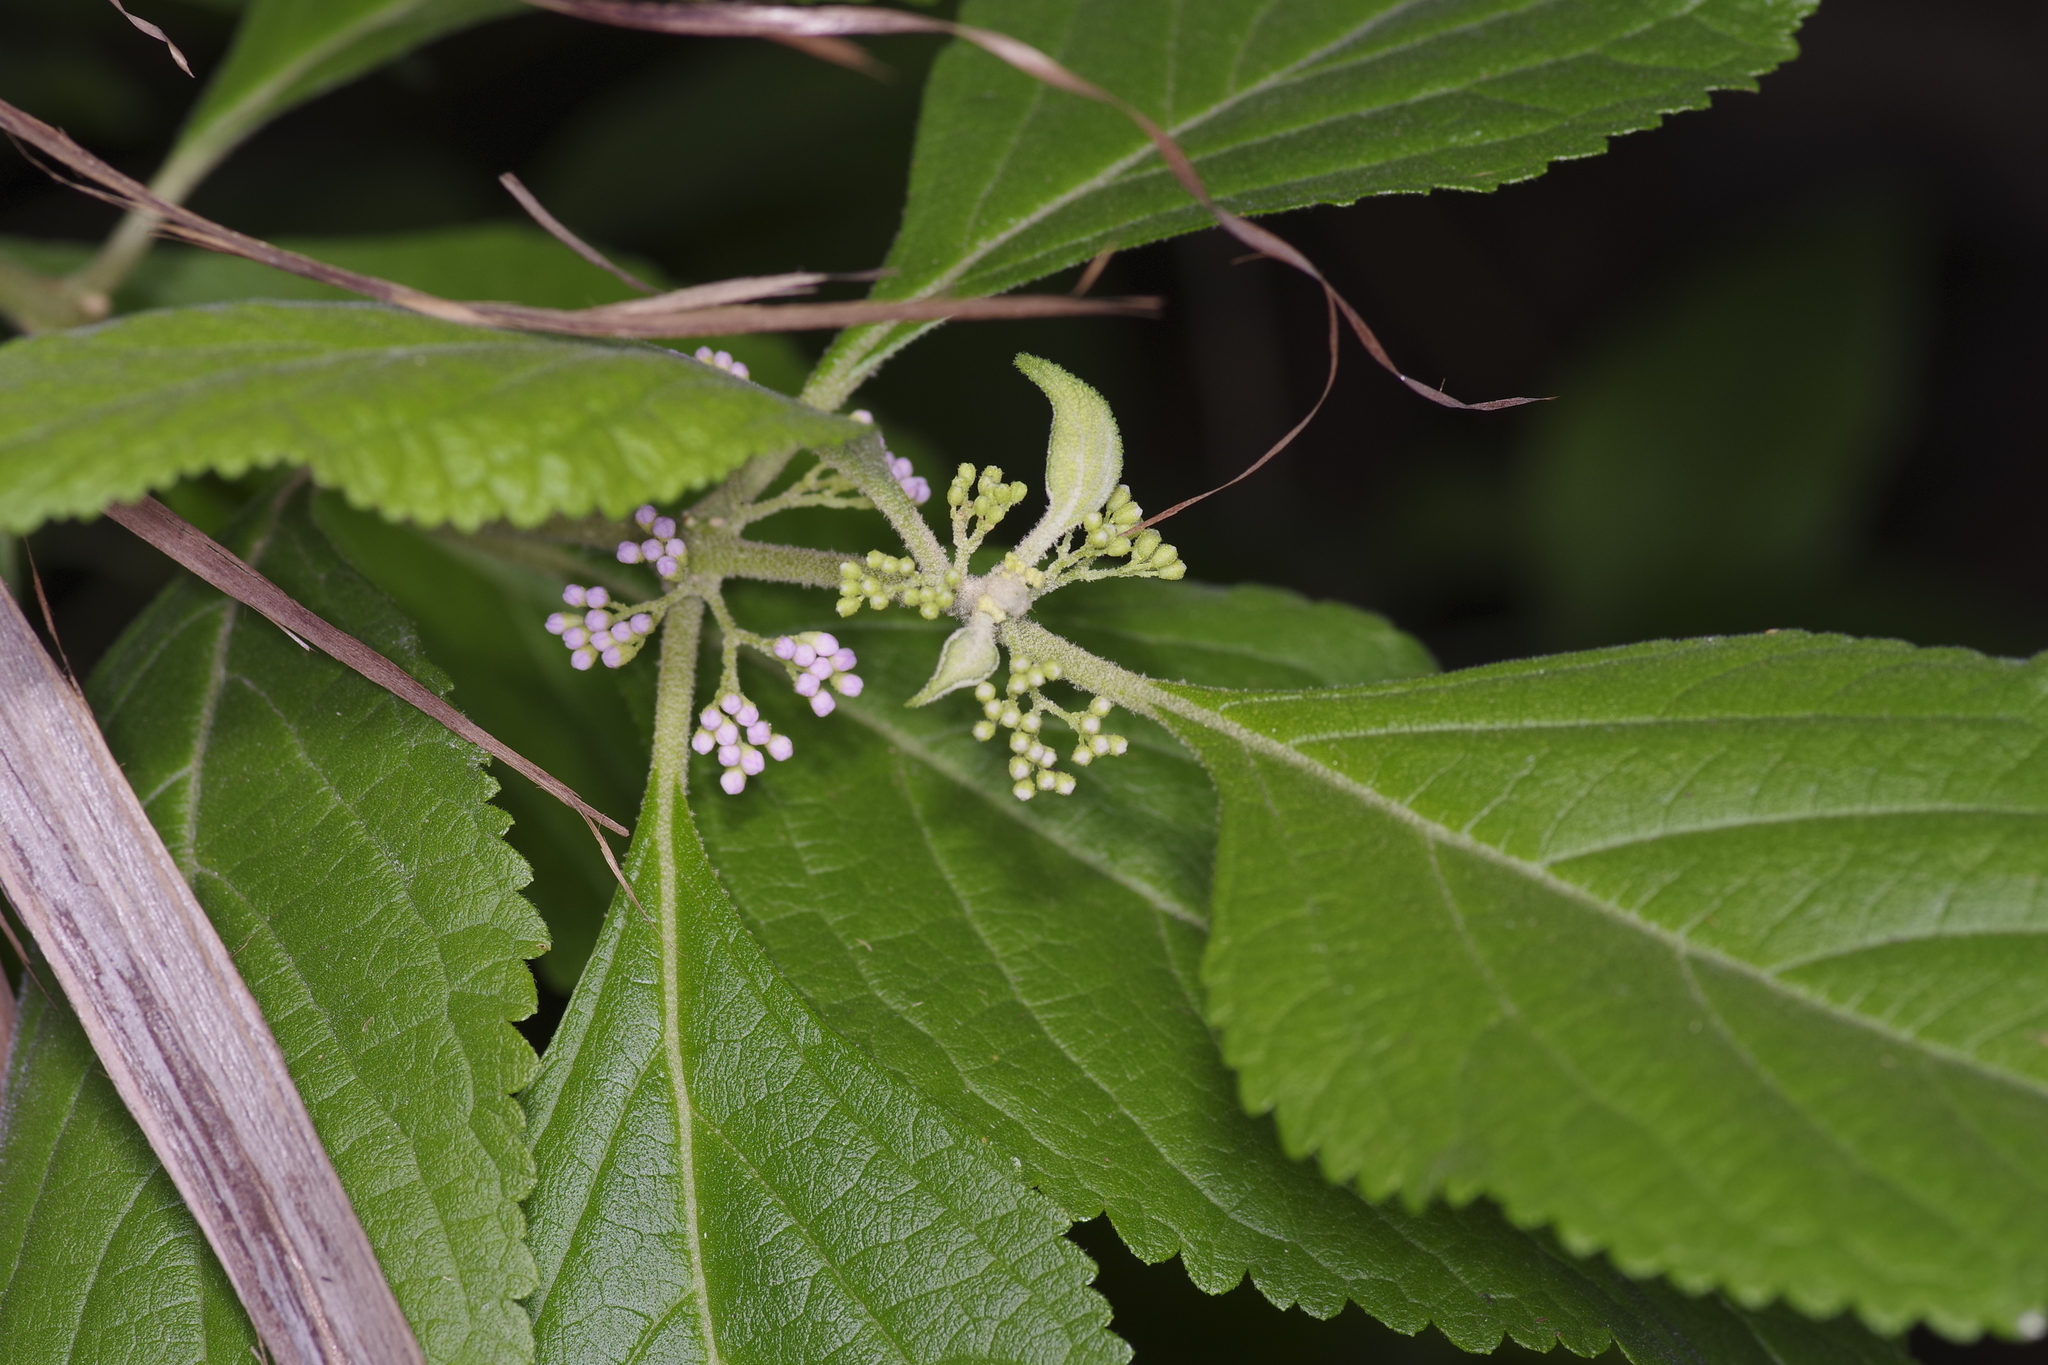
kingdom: Plantae
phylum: Tracheophyta
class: Magnoliopsida
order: Lamiales
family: Lamiaceae
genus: Callicarpa
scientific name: Callicarpa americana
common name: American beautyberry
